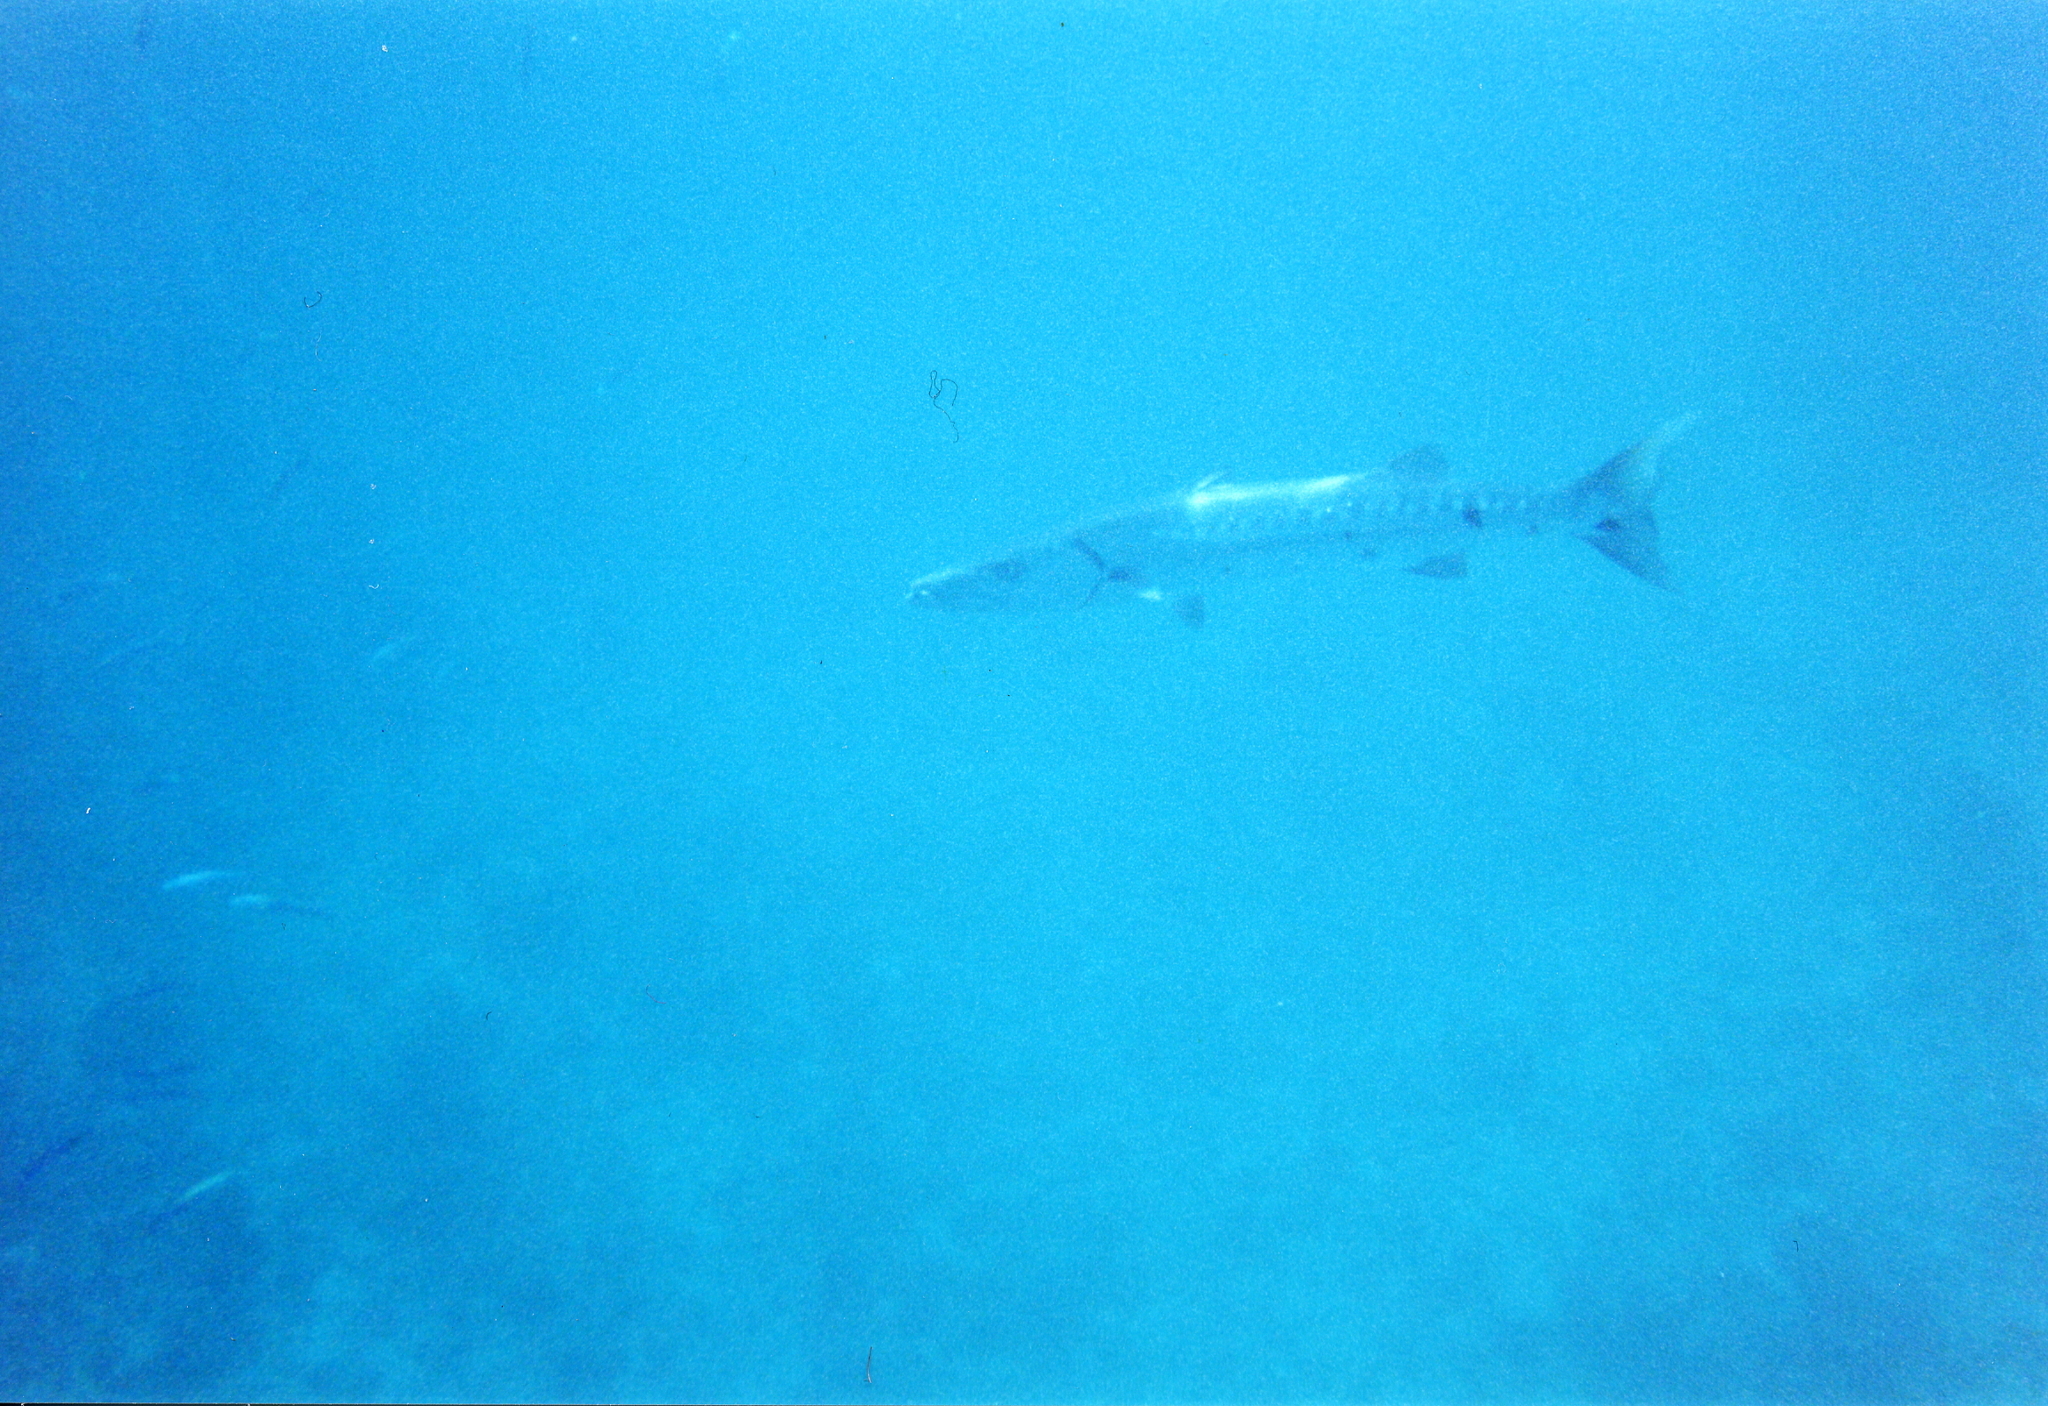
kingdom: Animalia
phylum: Chordata
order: Perciformes
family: Sphyraenidae
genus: Sphyraena
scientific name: Sphyraena barracuda
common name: Great barracuda
